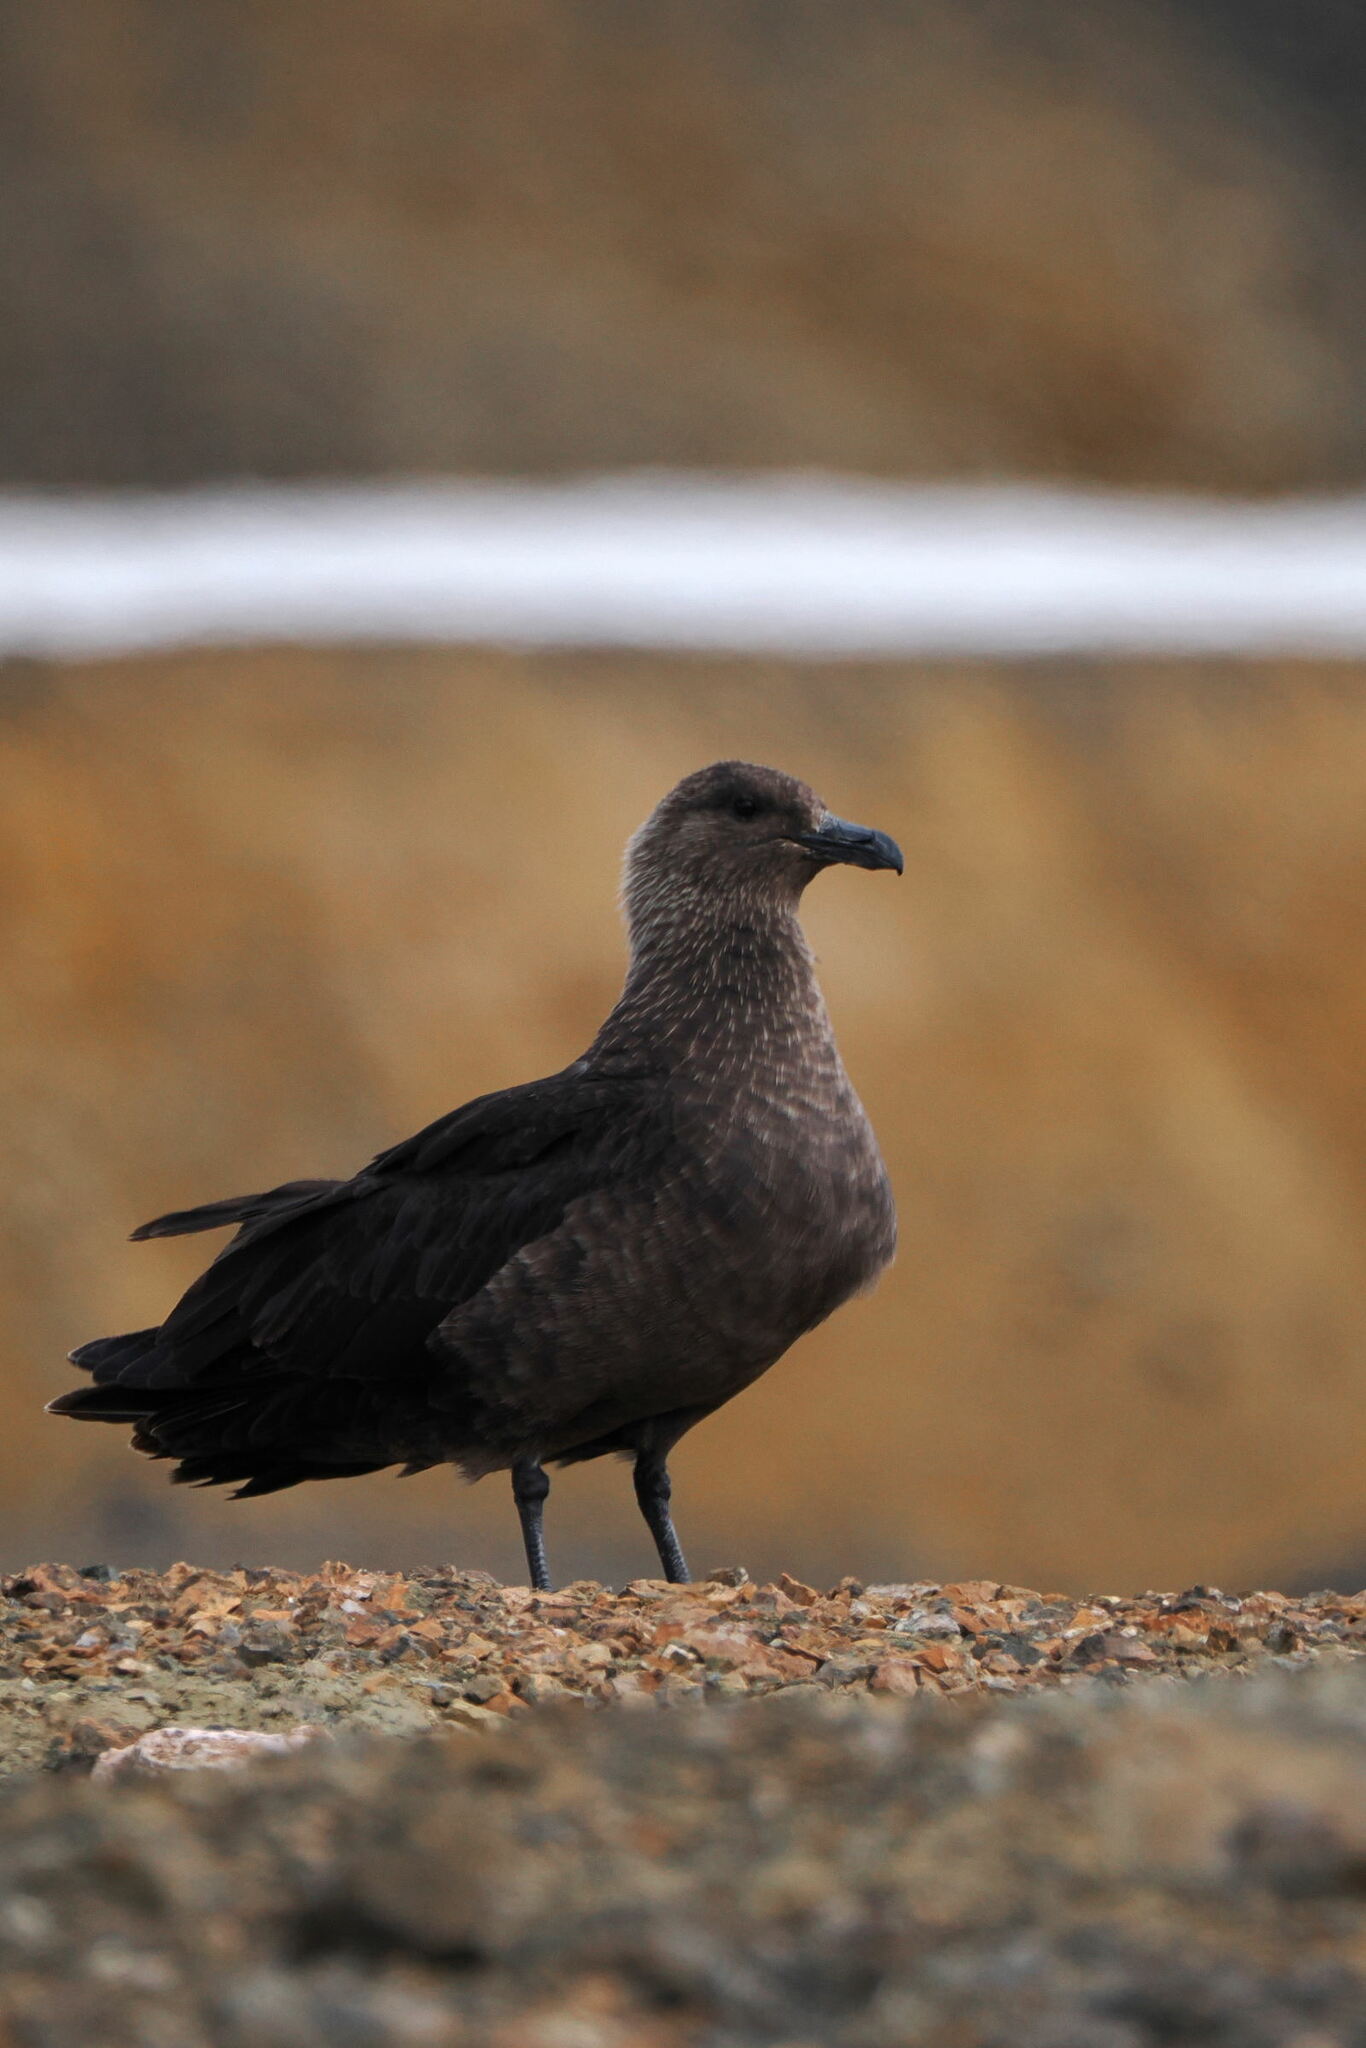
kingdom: Animalia
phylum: Chordata
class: Aves
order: Charadriiformes
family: Stercorariidae
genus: Stercorarius
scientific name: Stercorarius maccormicki
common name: South polar skua
